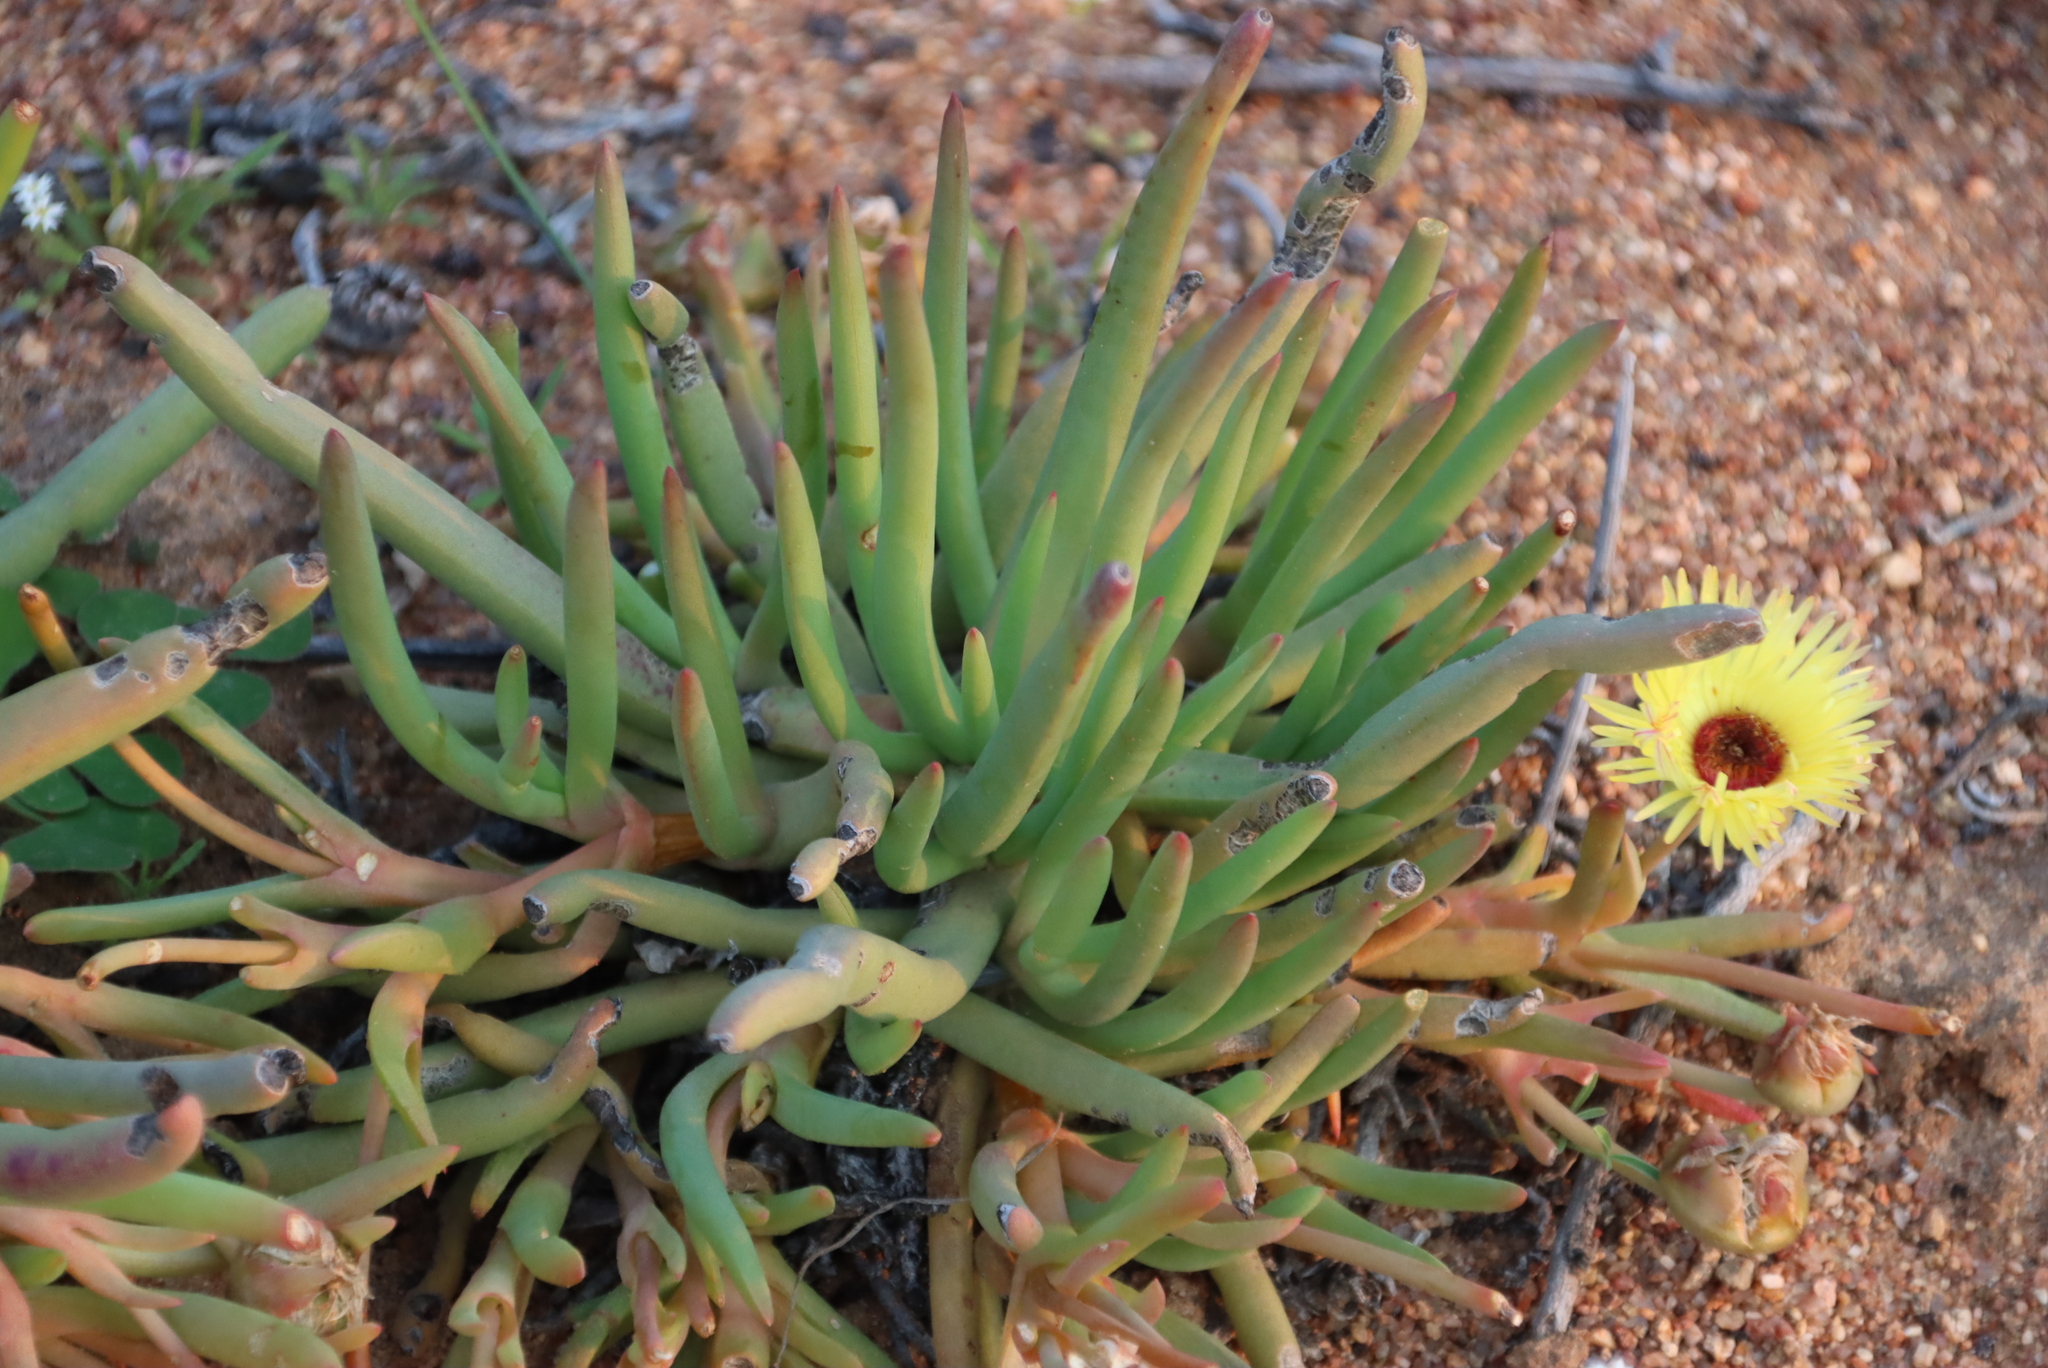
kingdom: Plantae
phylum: Tracheophyta
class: Magnoliopsida
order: Caryophyllales
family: Aizoaceae
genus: Cephalophyllum
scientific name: Cephalophyllum pillansii
